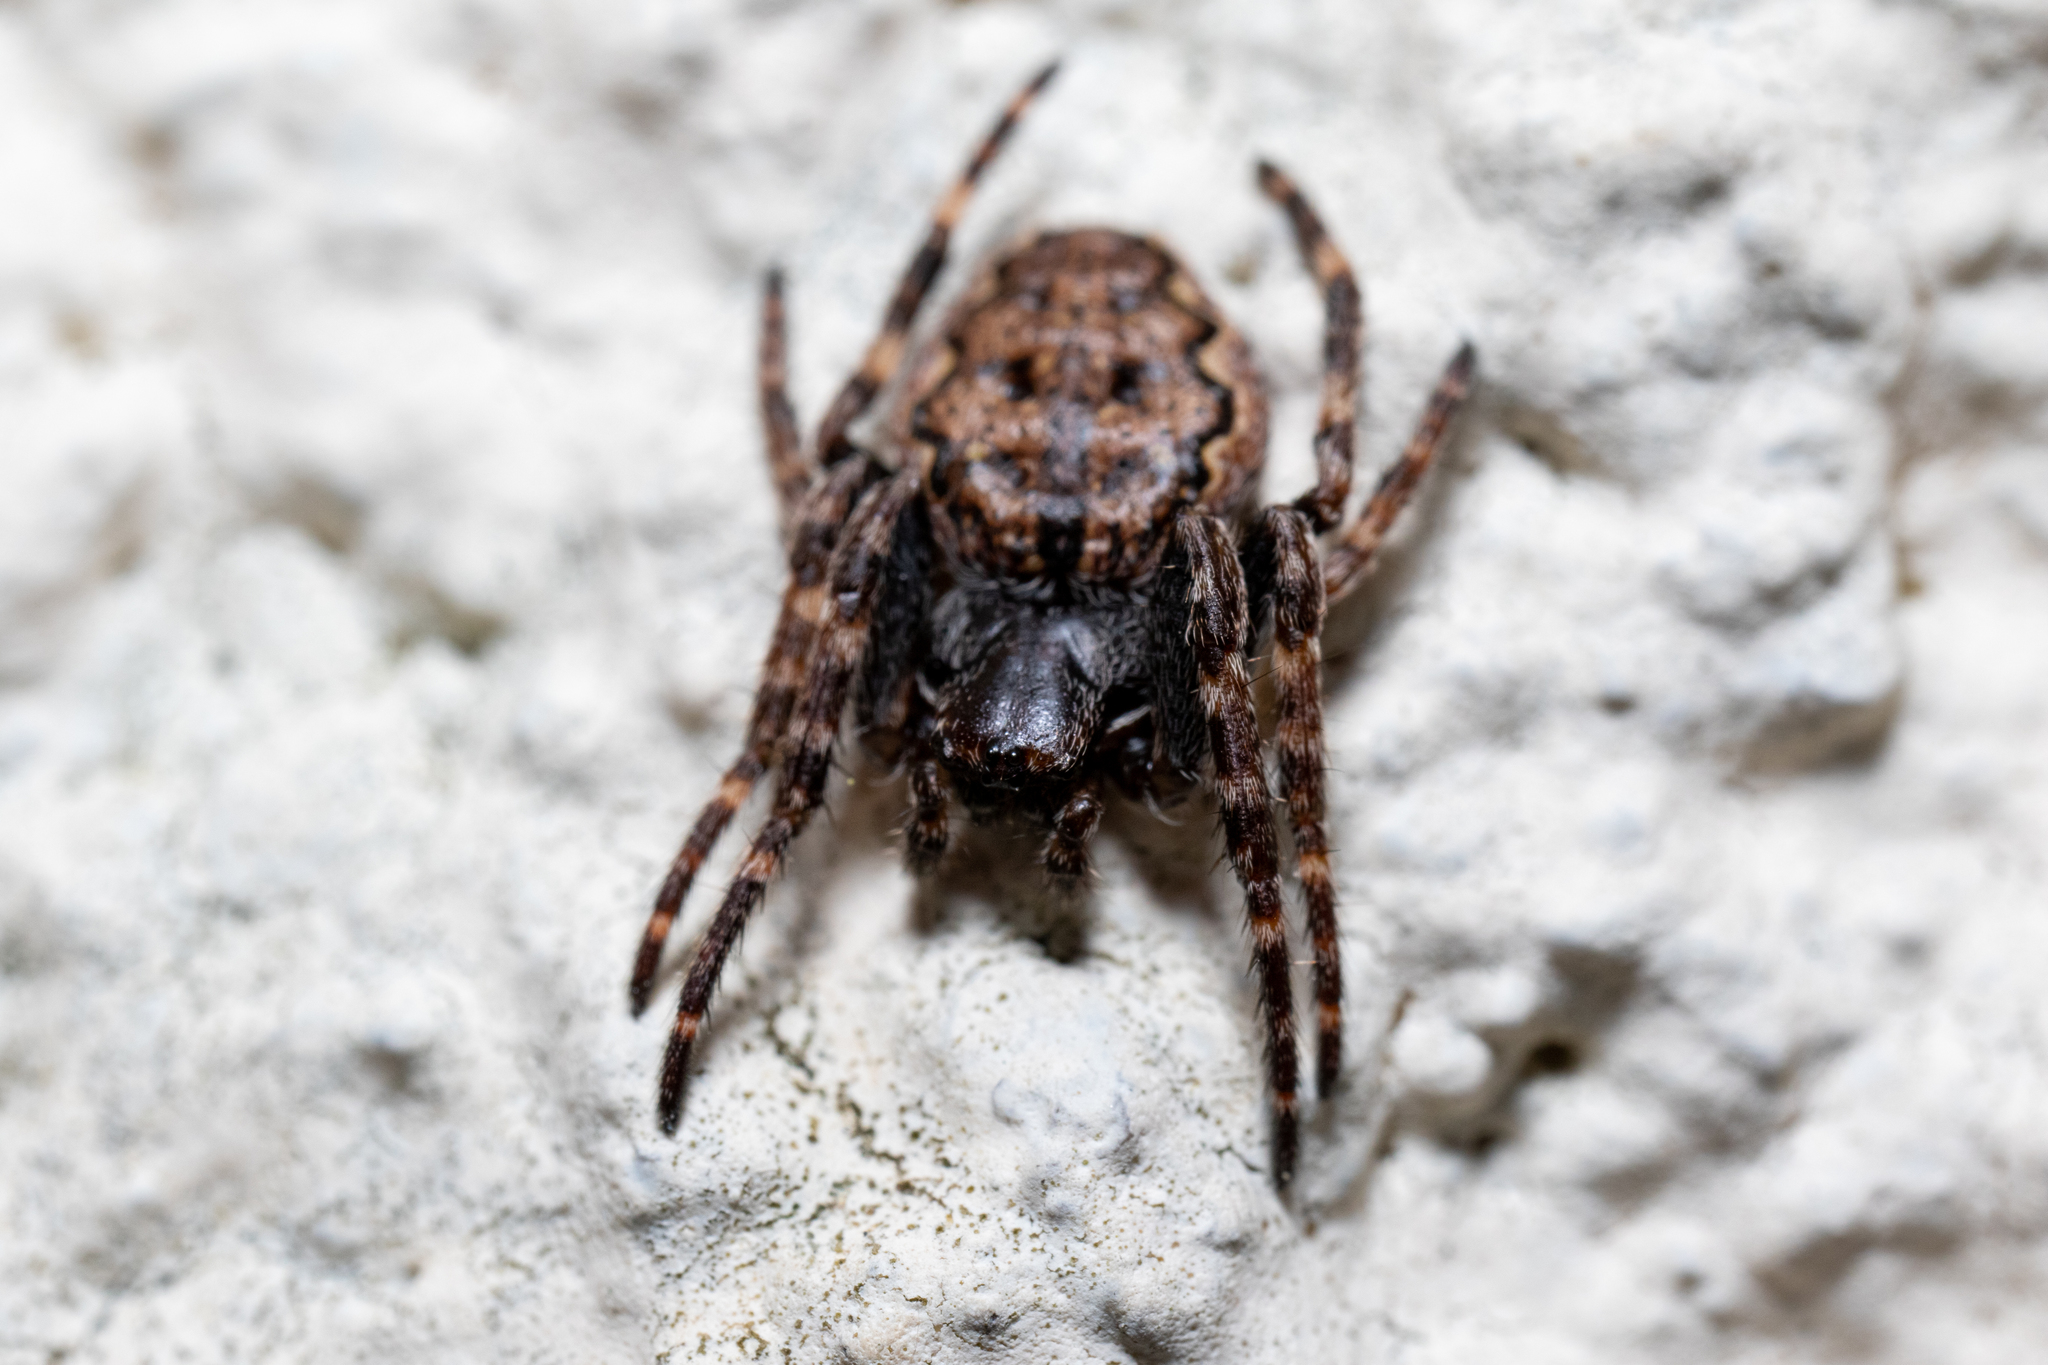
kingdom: Animalia
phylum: Arthropoda
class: Arachnida
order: Araneae
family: Araneidae
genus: Nuctenea
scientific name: Nuctenea umbratica
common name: Toad spider
